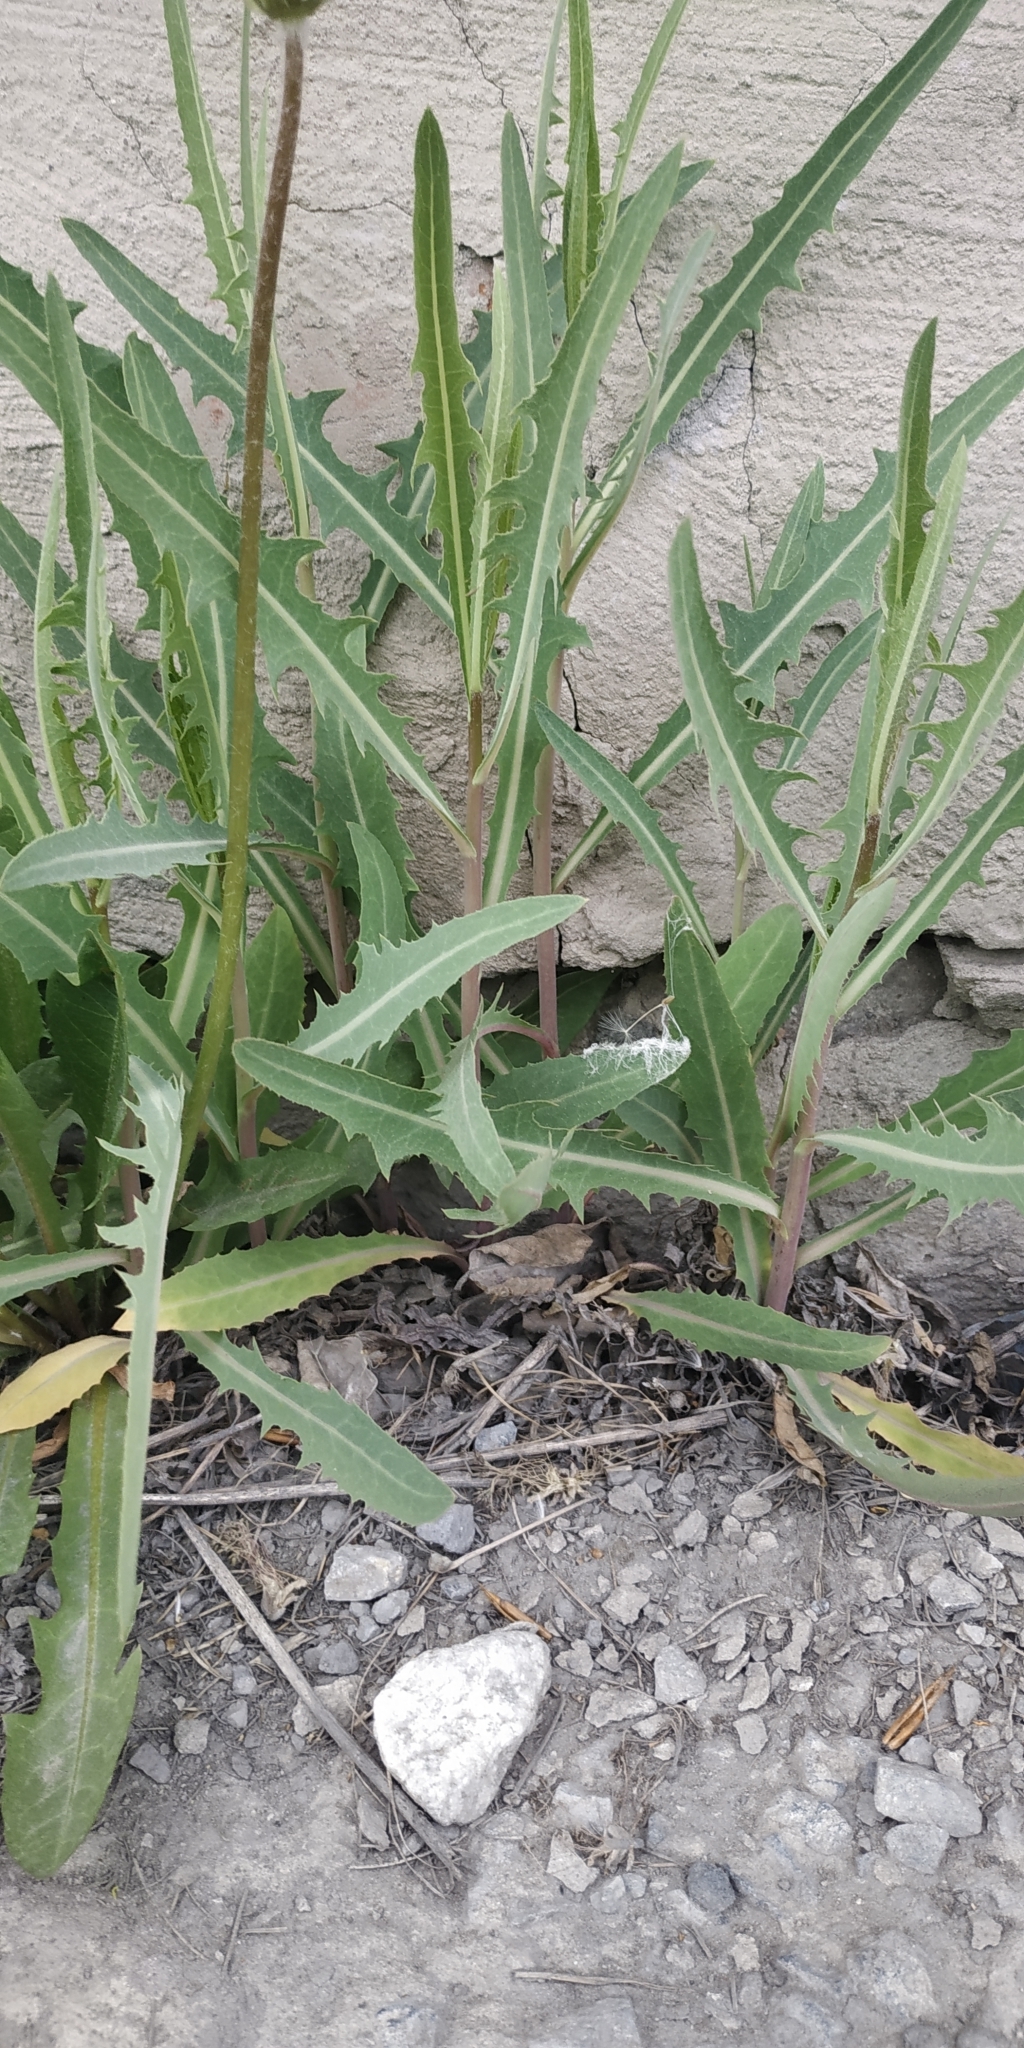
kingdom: Plantae
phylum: Tracheophyta
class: Magnoliopsida
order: Asterales
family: Asteraceae
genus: Lactuca
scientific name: Lactuca tatarica
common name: Blue lettuce
